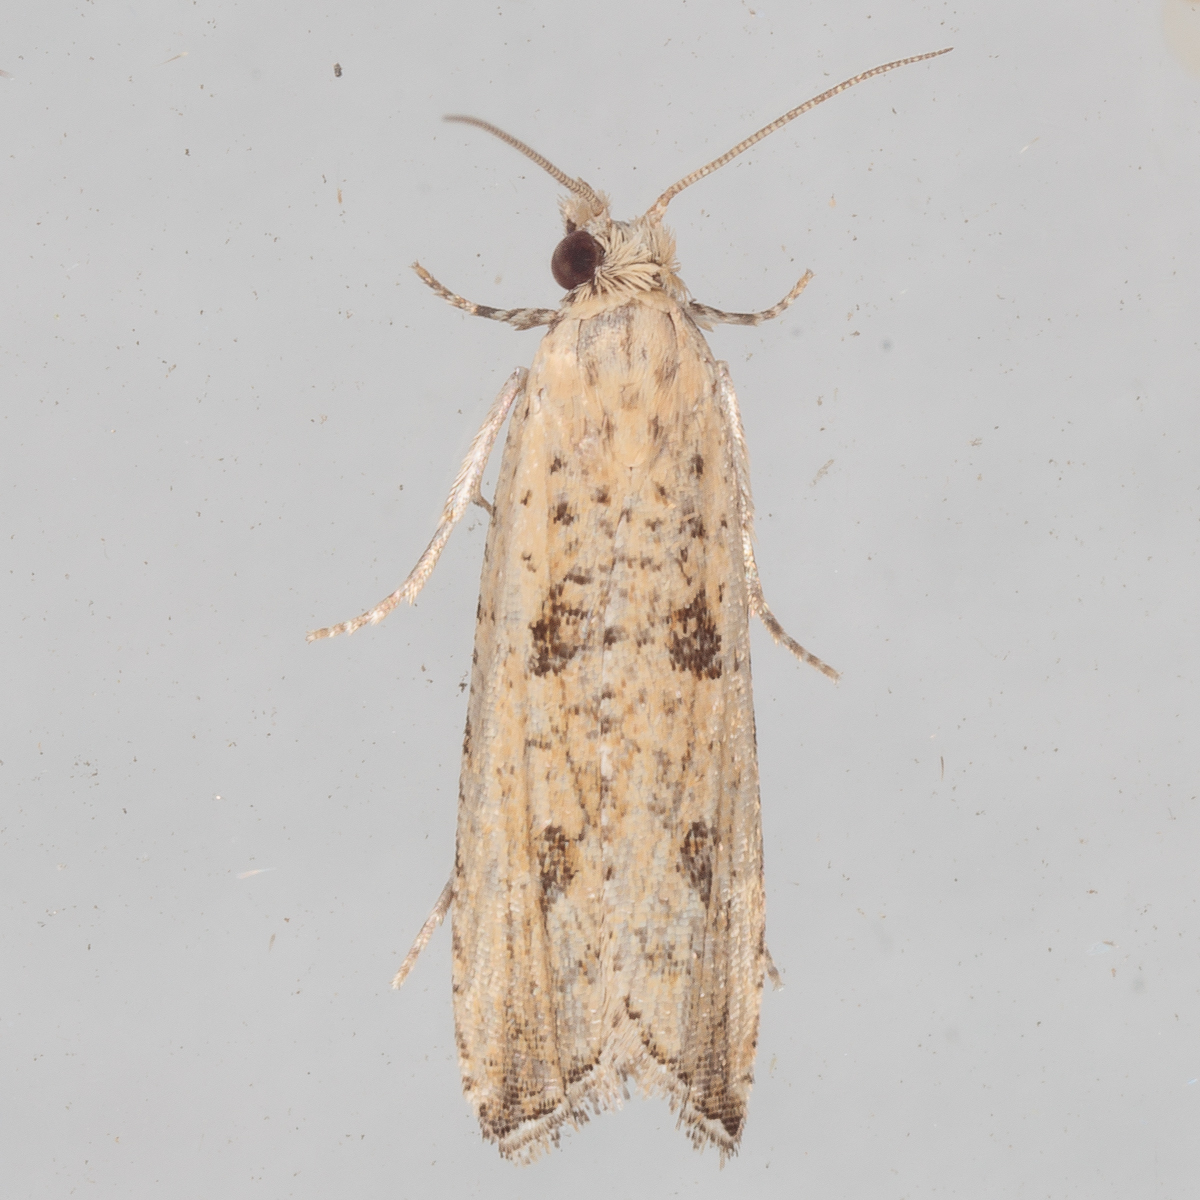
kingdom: Animalia
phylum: Arthropoda
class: Insecta
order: Lepidoptera
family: Tortricidae
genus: Bactra
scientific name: Bactra verutana
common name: Javelin moth
